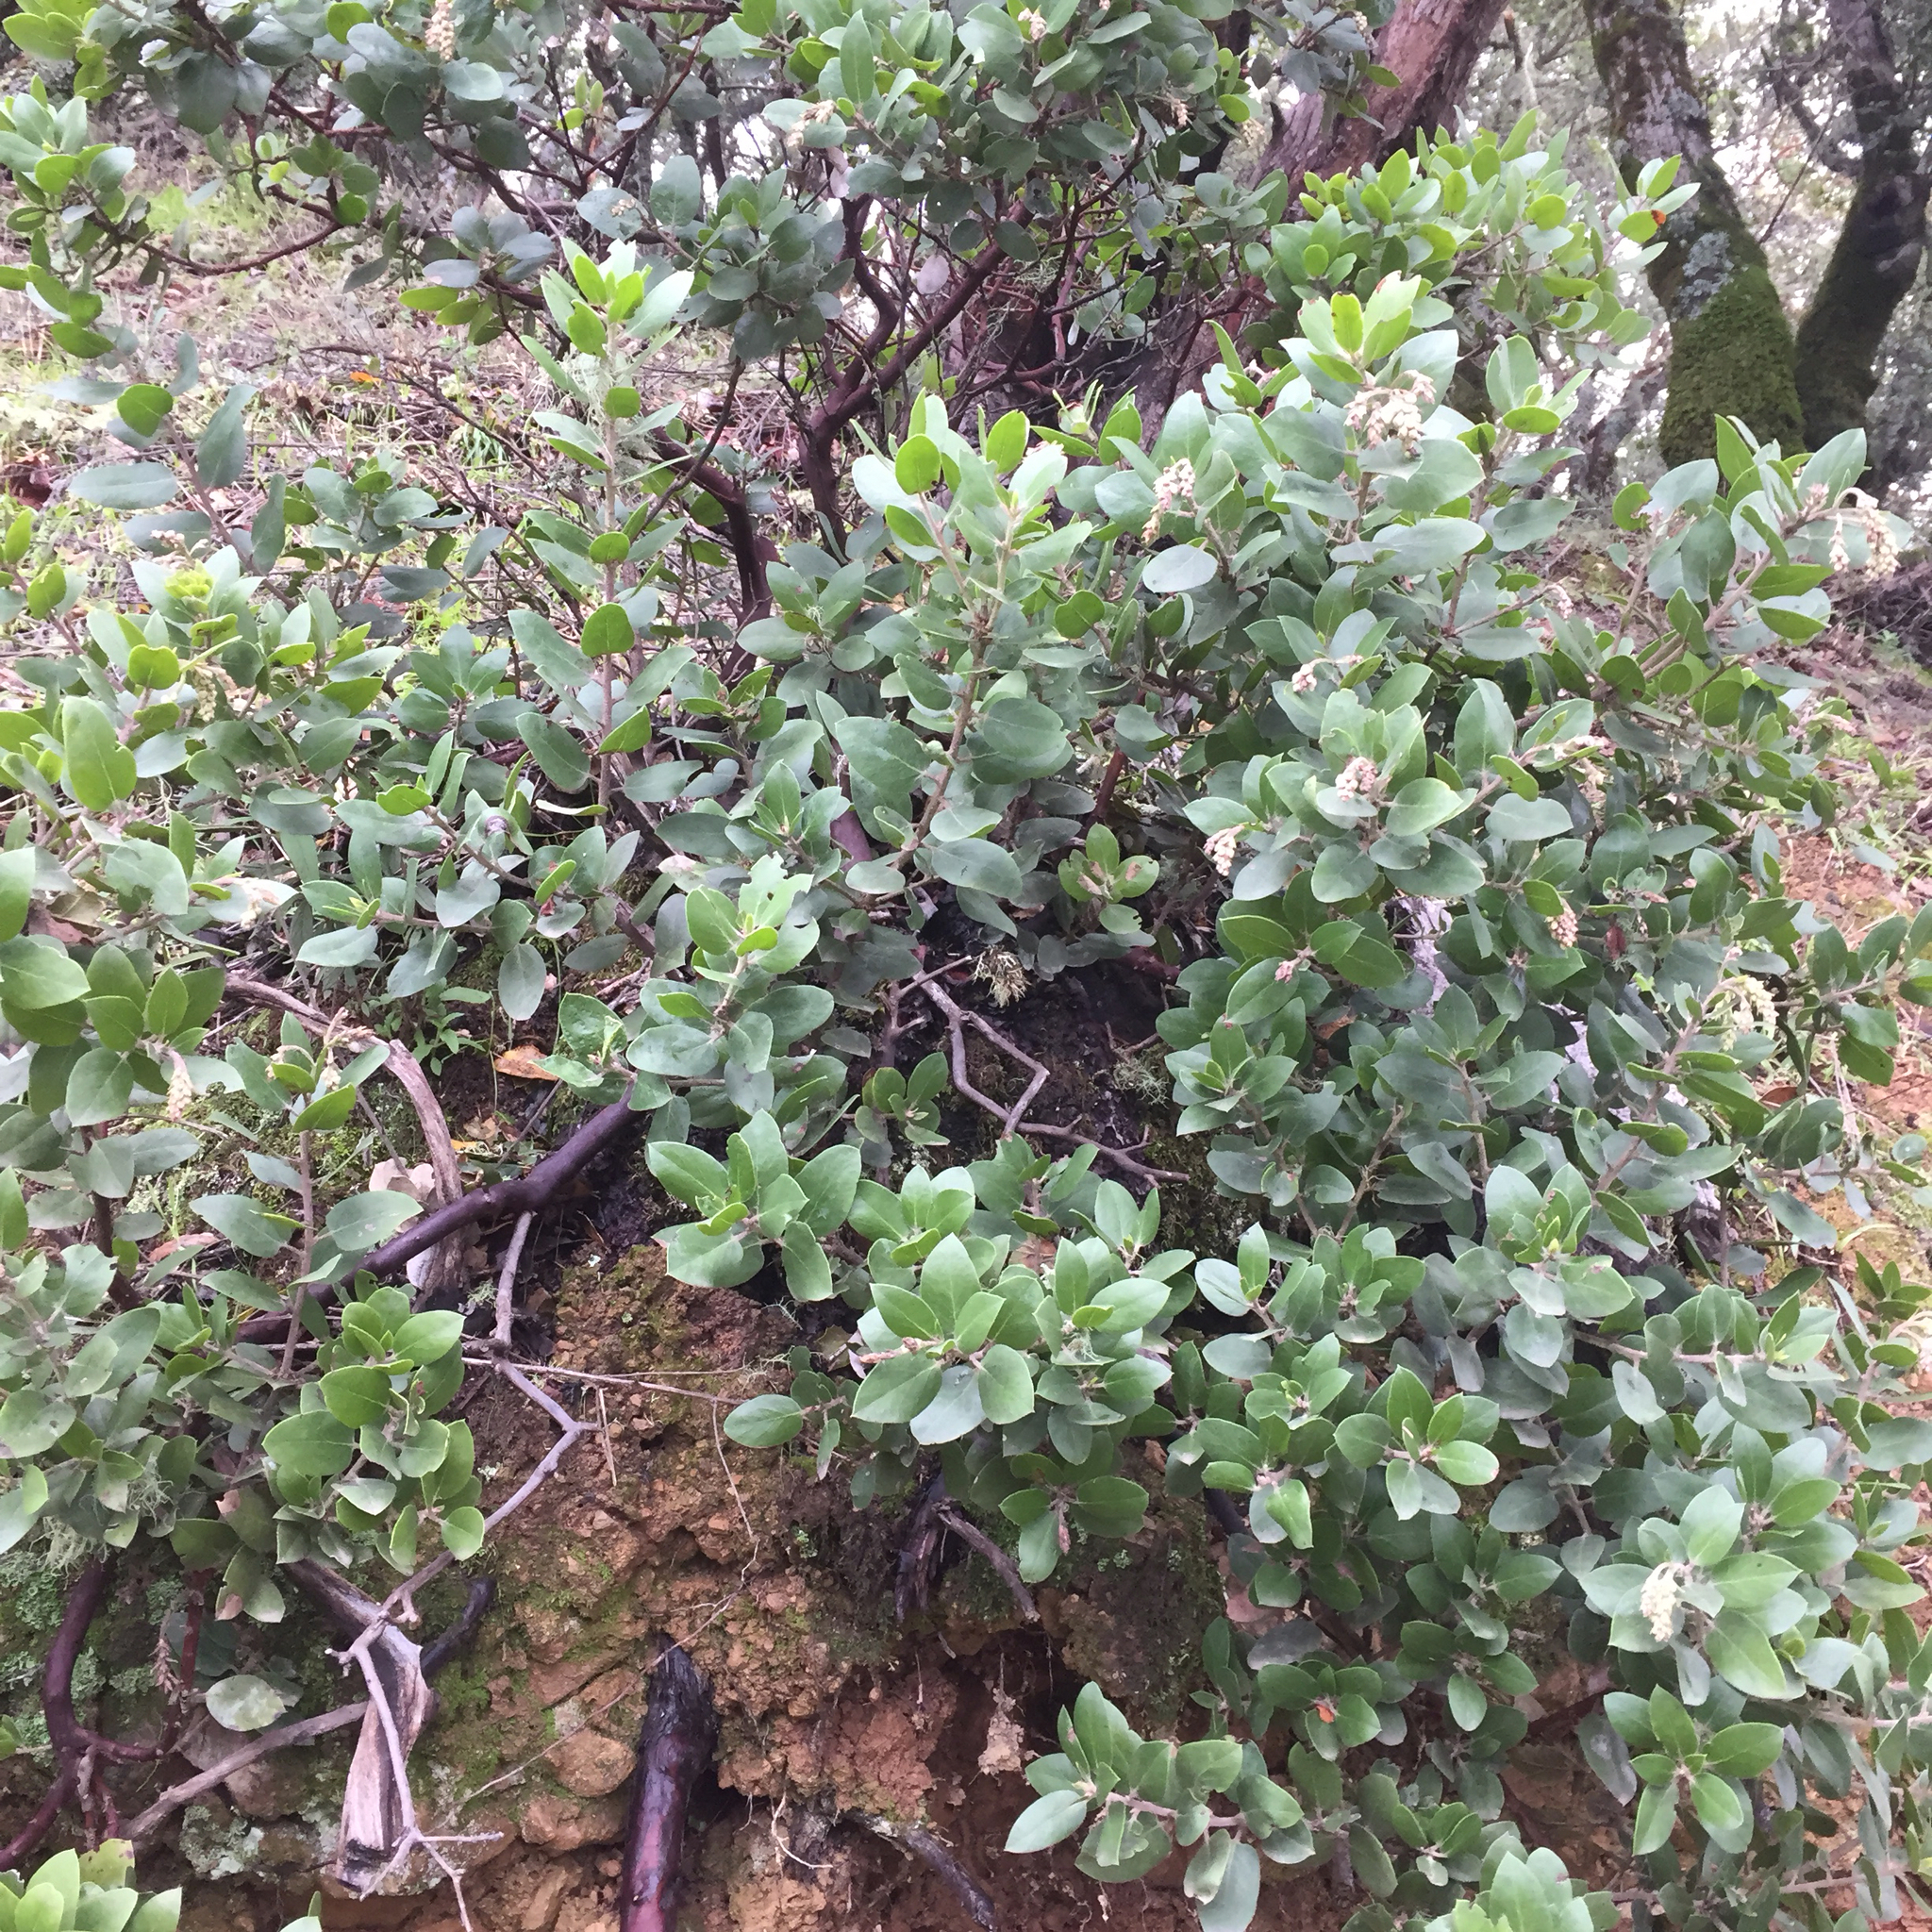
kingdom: Plantae
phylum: Tracheophyta
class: Magnoliopsida
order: Ericales
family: Ericaceae
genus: Arctostaphylos
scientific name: Arctostaphylos glandulosa
